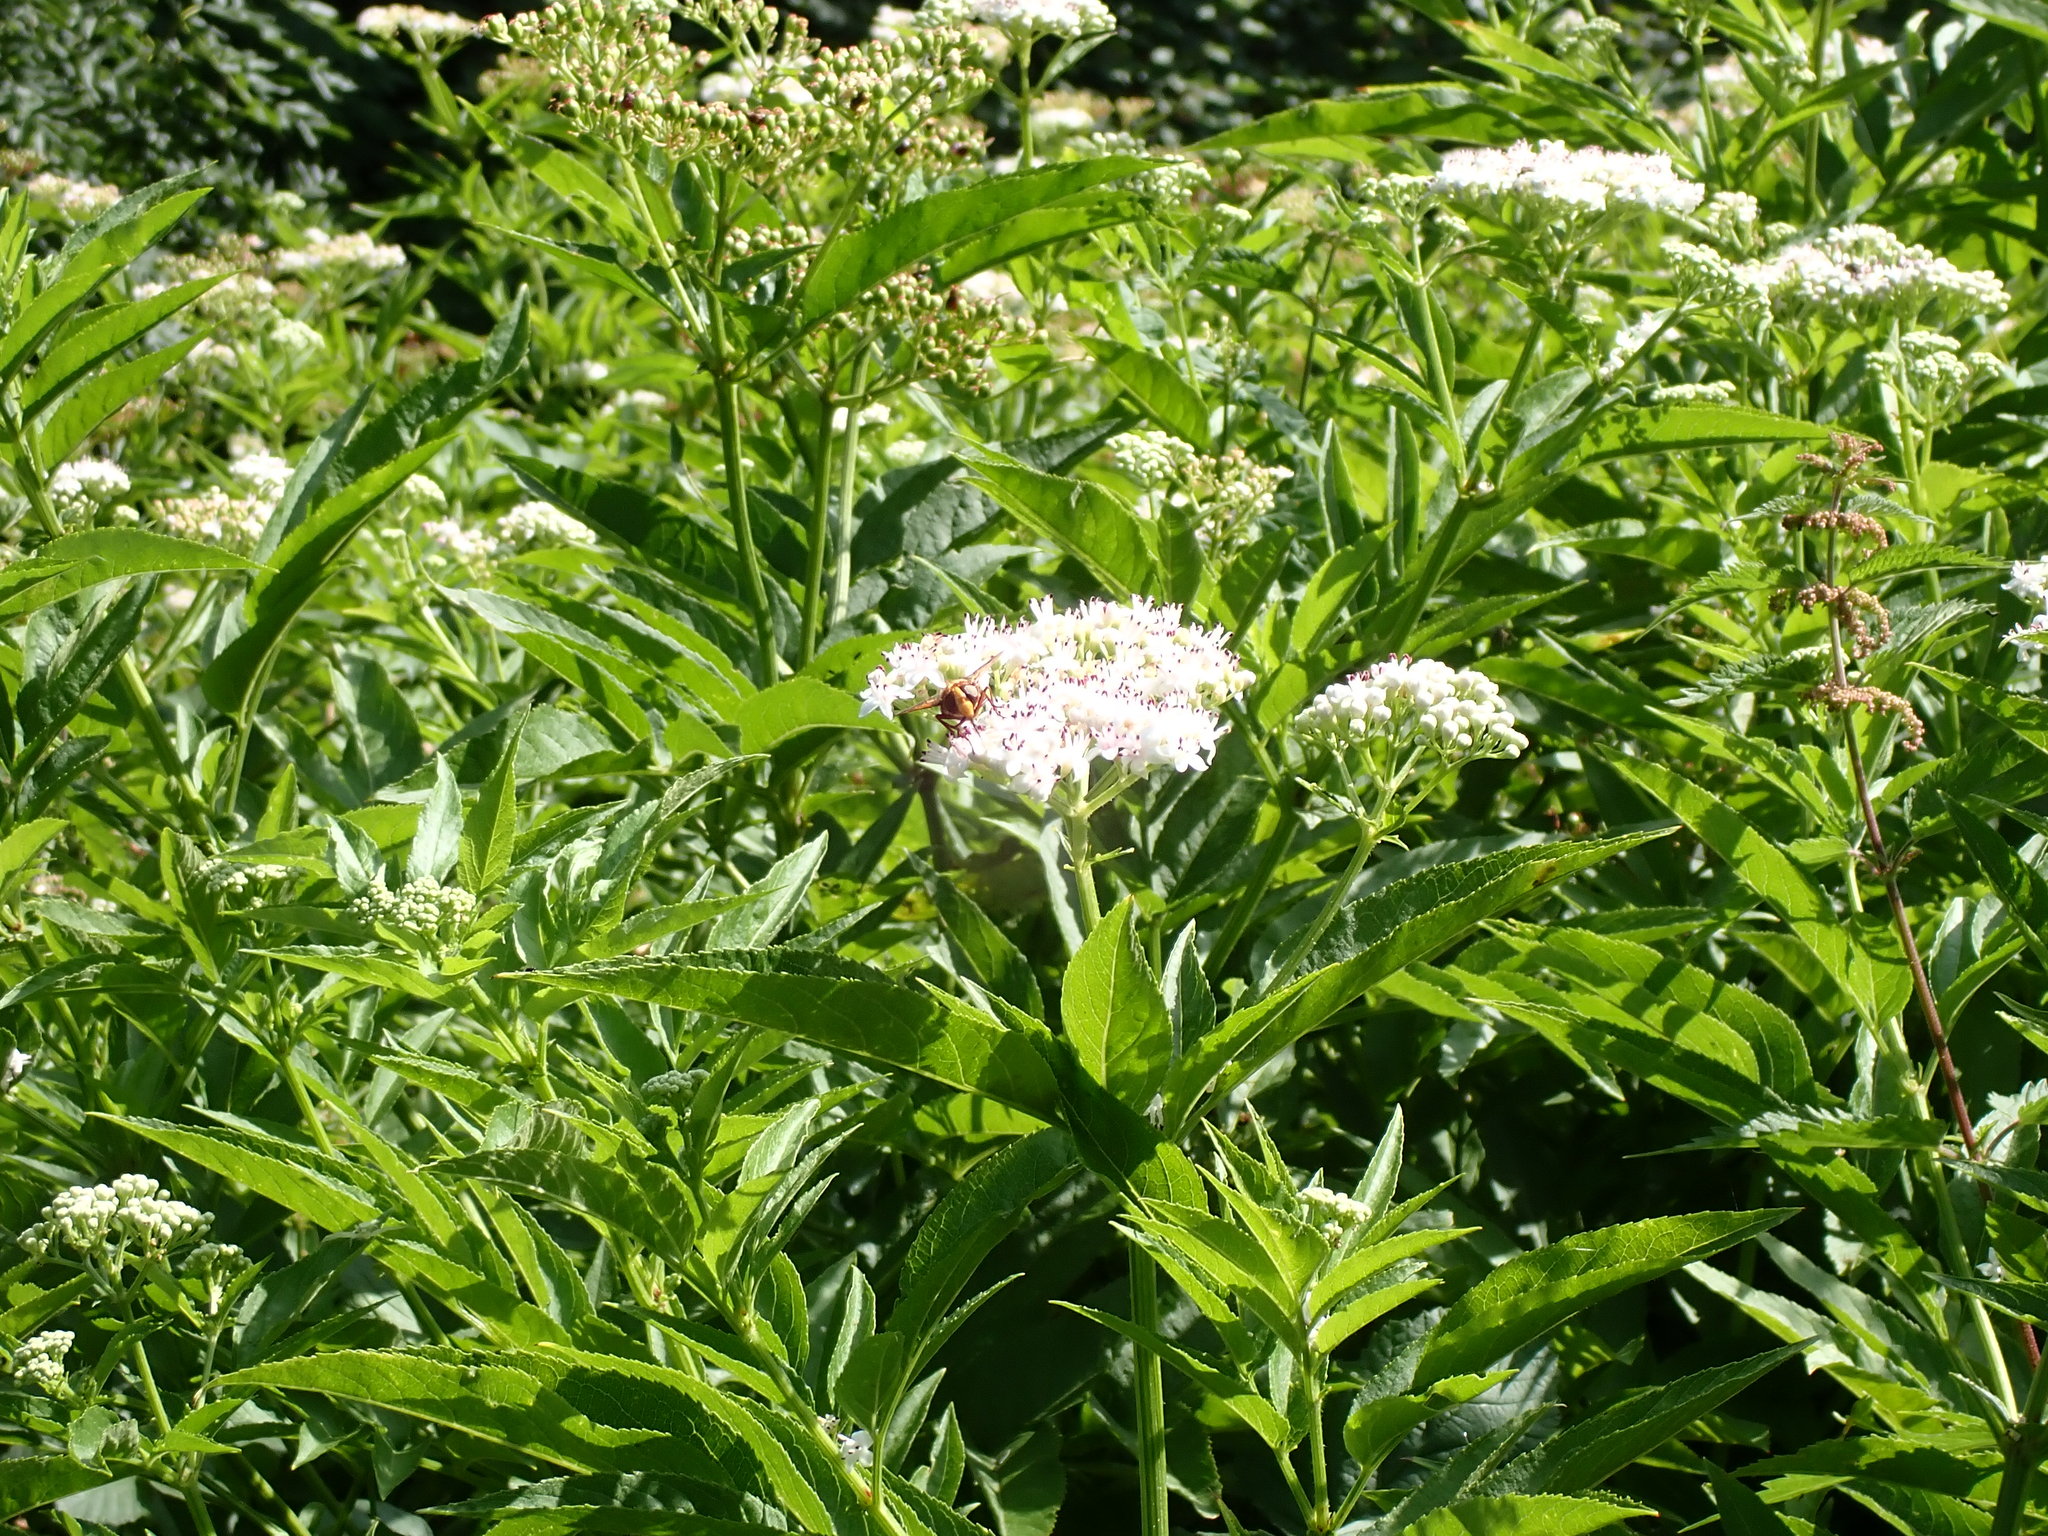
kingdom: Animalia
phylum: Arthropoda
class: Insecta
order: Diptera
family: Syrphidae
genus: Volucella
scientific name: Volucella
